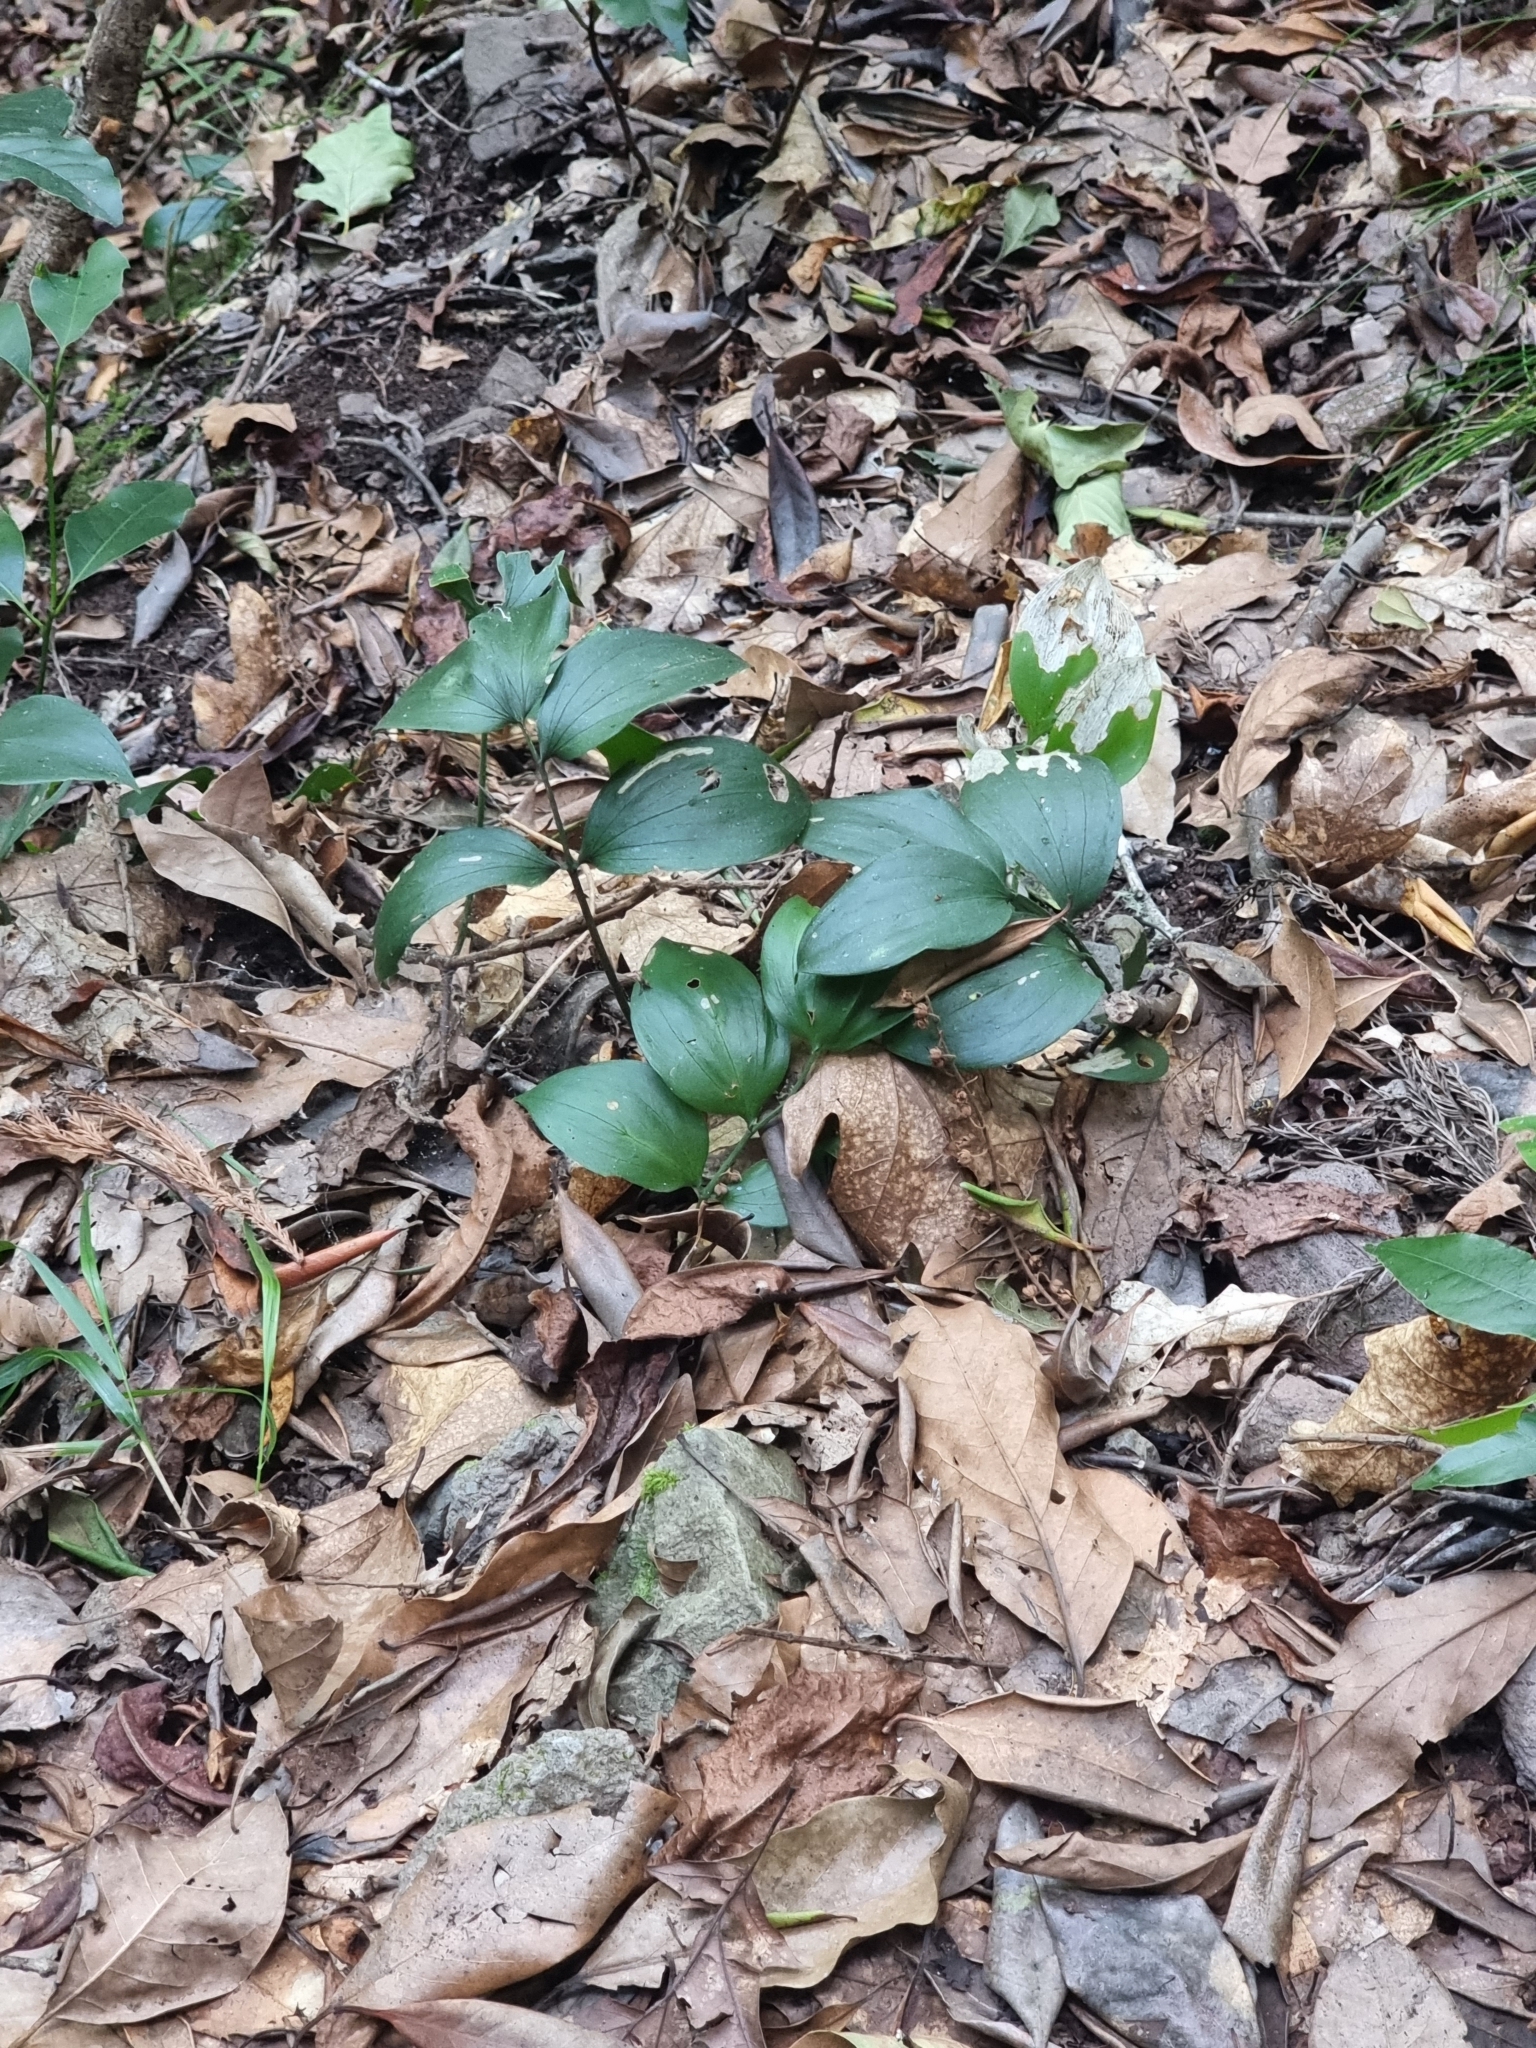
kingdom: Plantae
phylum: Tracheophyta
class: Liliopsida
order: Asparagales
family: Asparagaceae
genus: Ruscus
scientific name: Ruscus streptophyllus
